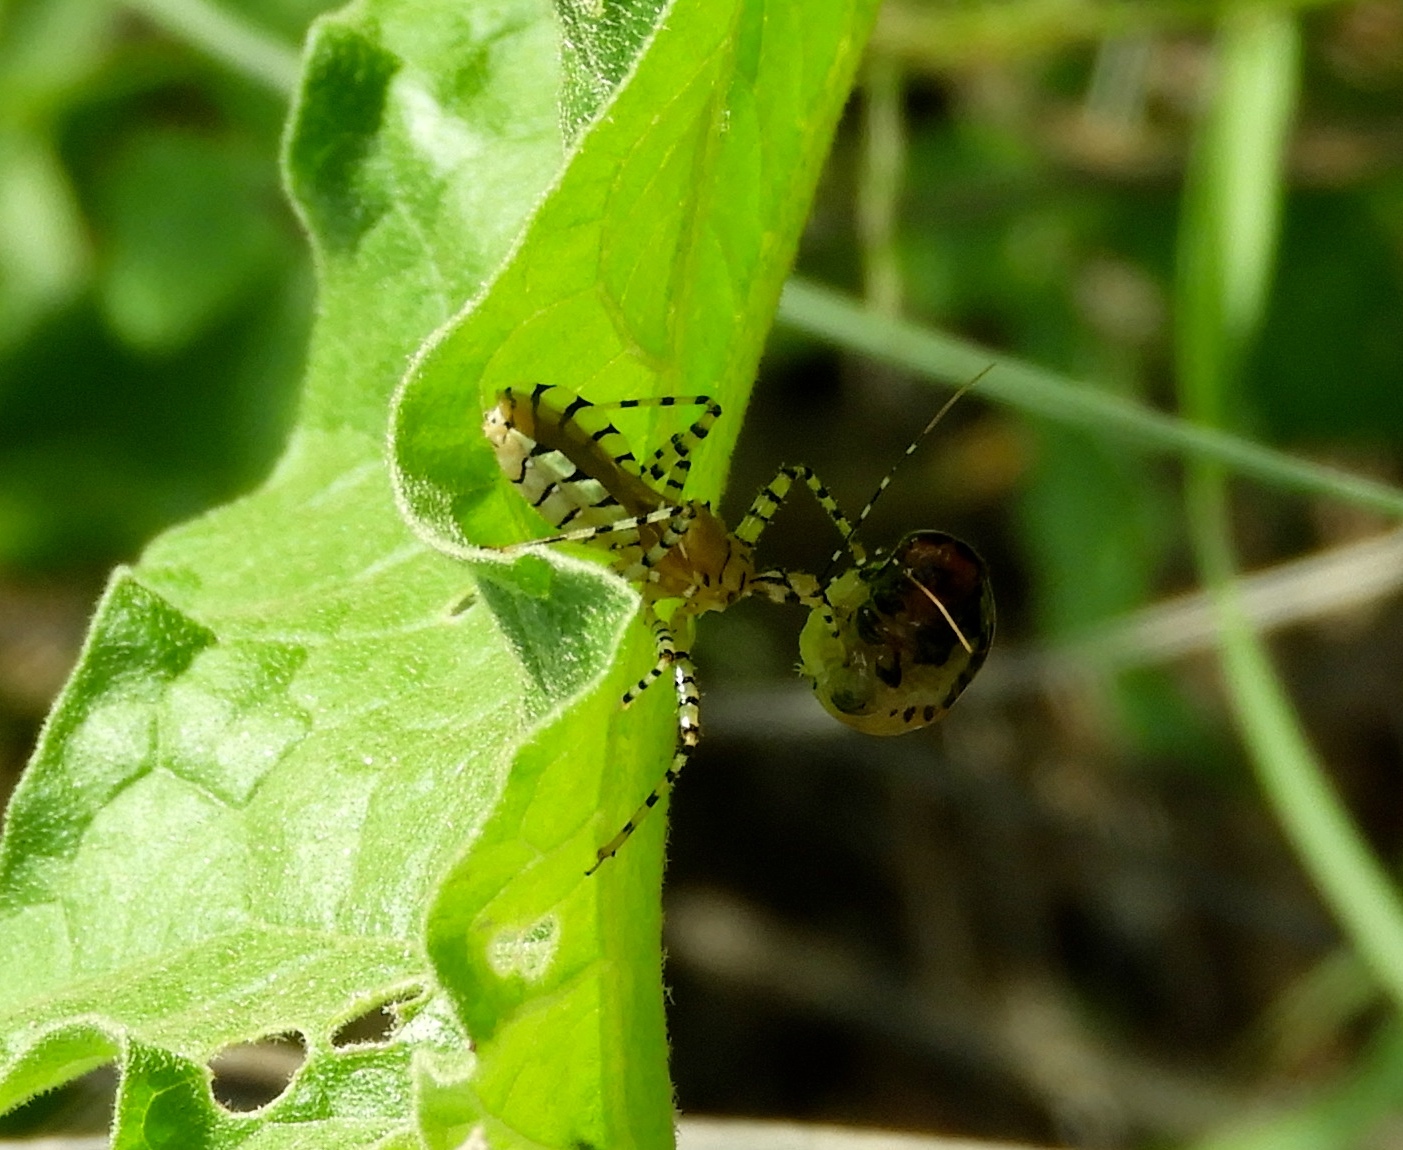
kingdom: Animalia
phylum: Arthropoda
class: Insecta
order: Hemiptera
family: Reduviidae
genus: Pselliopus
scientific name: Pselliopus
